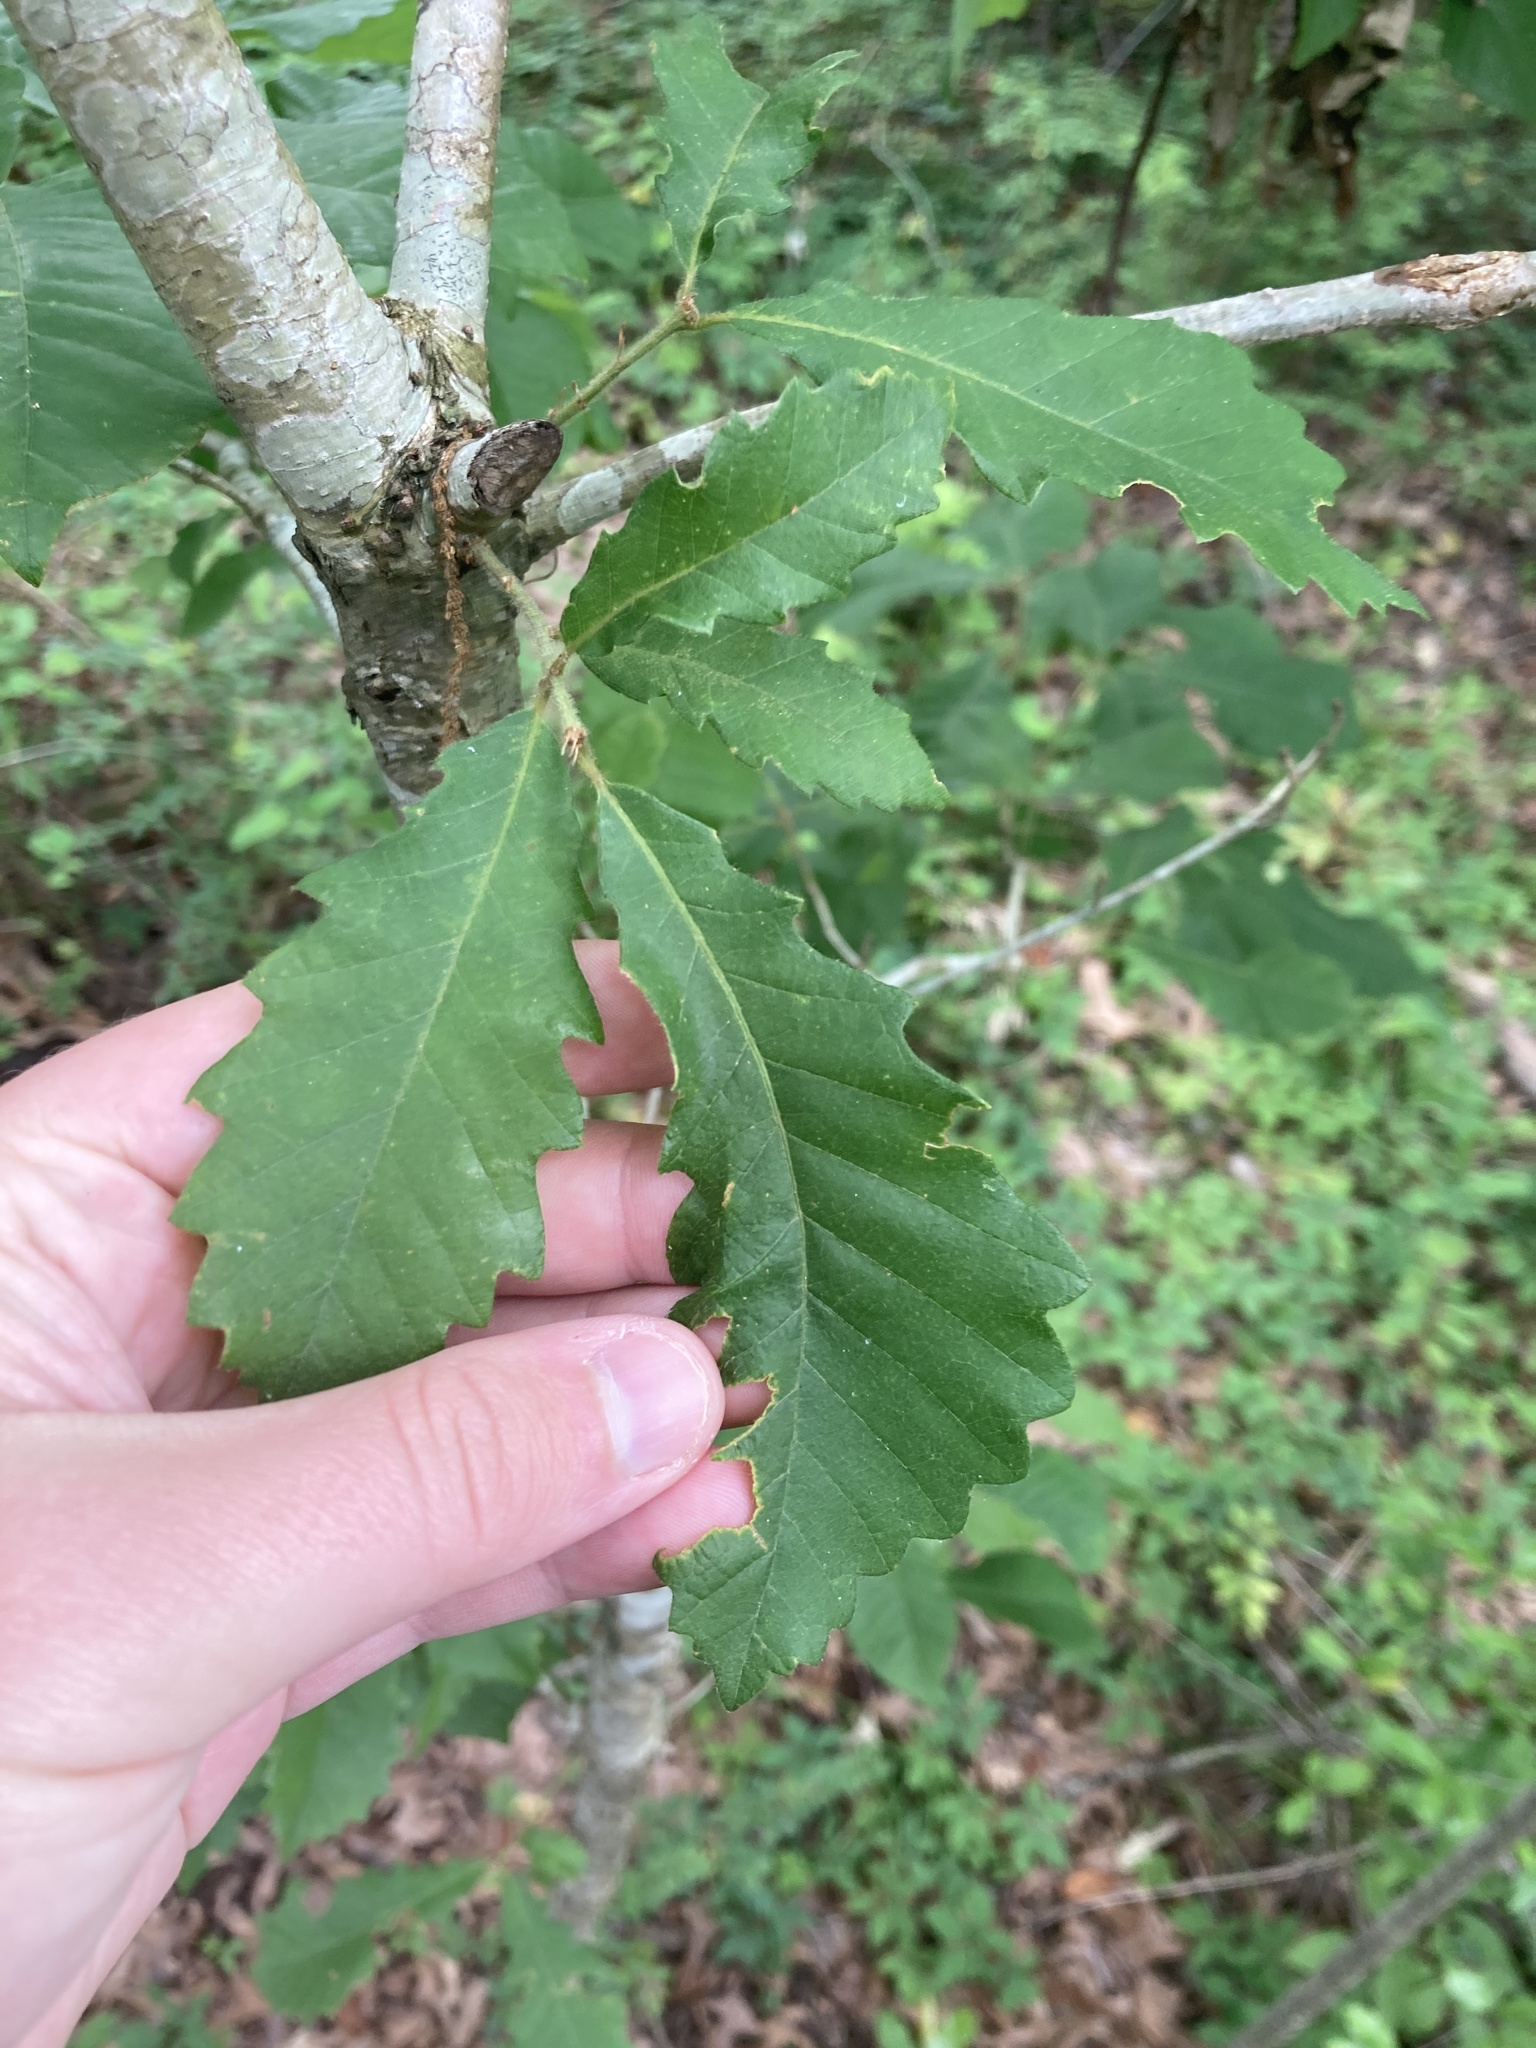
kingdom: Plantae
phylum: Tracheophyta
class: Magnoliopsida
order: Fagales
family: Fagaceae
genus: Quercus
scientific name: Quercus michauxii
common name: Swamp chestnut oak
